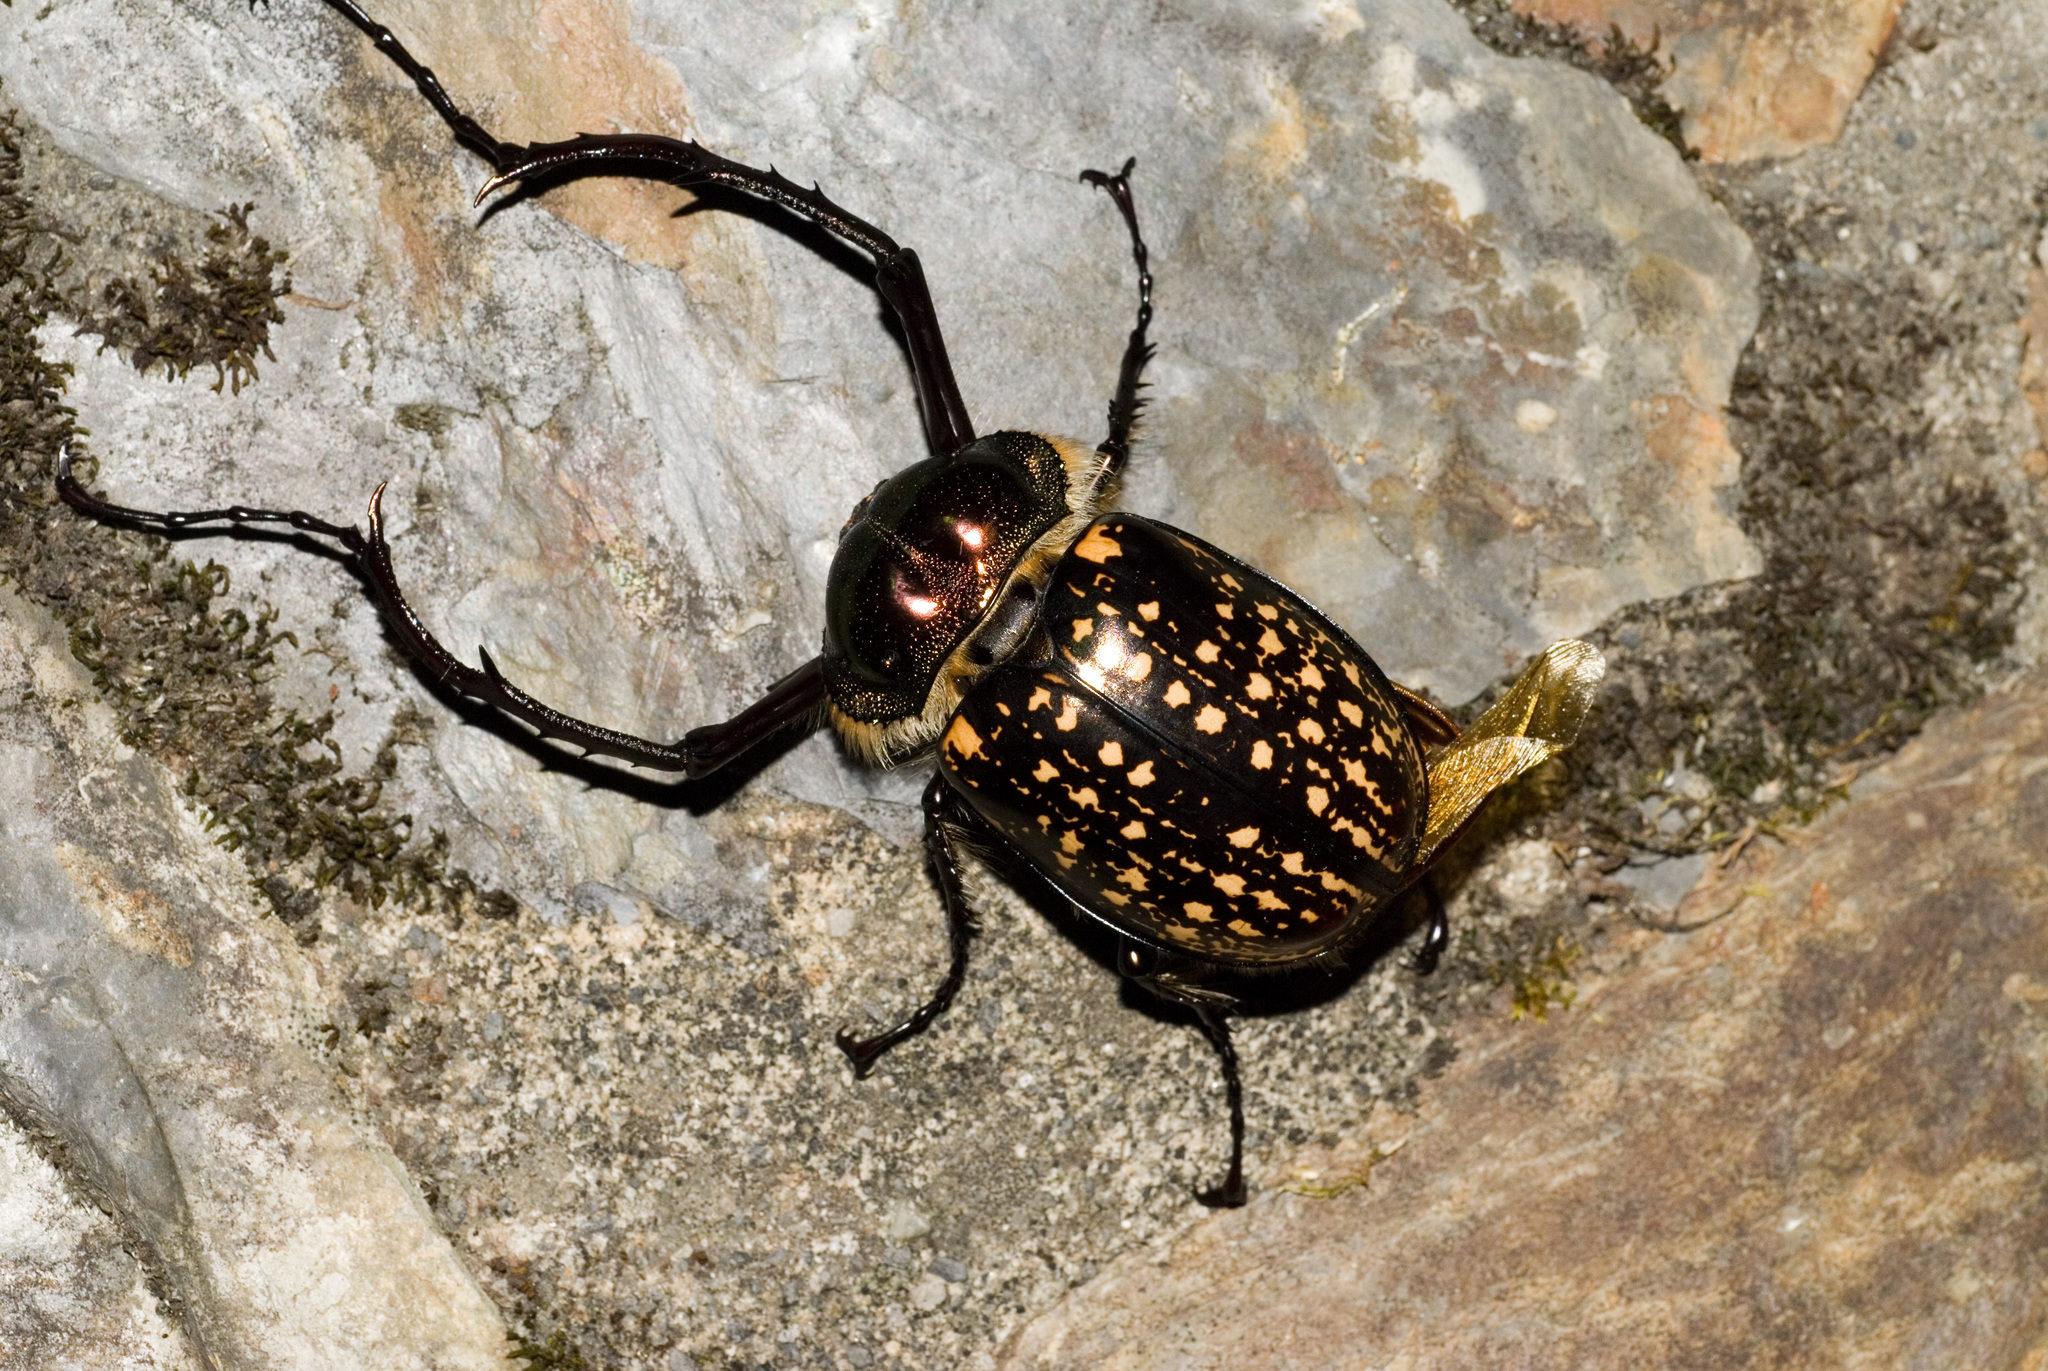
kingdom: Animalia
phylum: Arthropoda
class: Insecta
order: Coleoptera
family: Scarabaeidae
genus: Cheirotonus
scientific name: Cheirotonus formosanus
